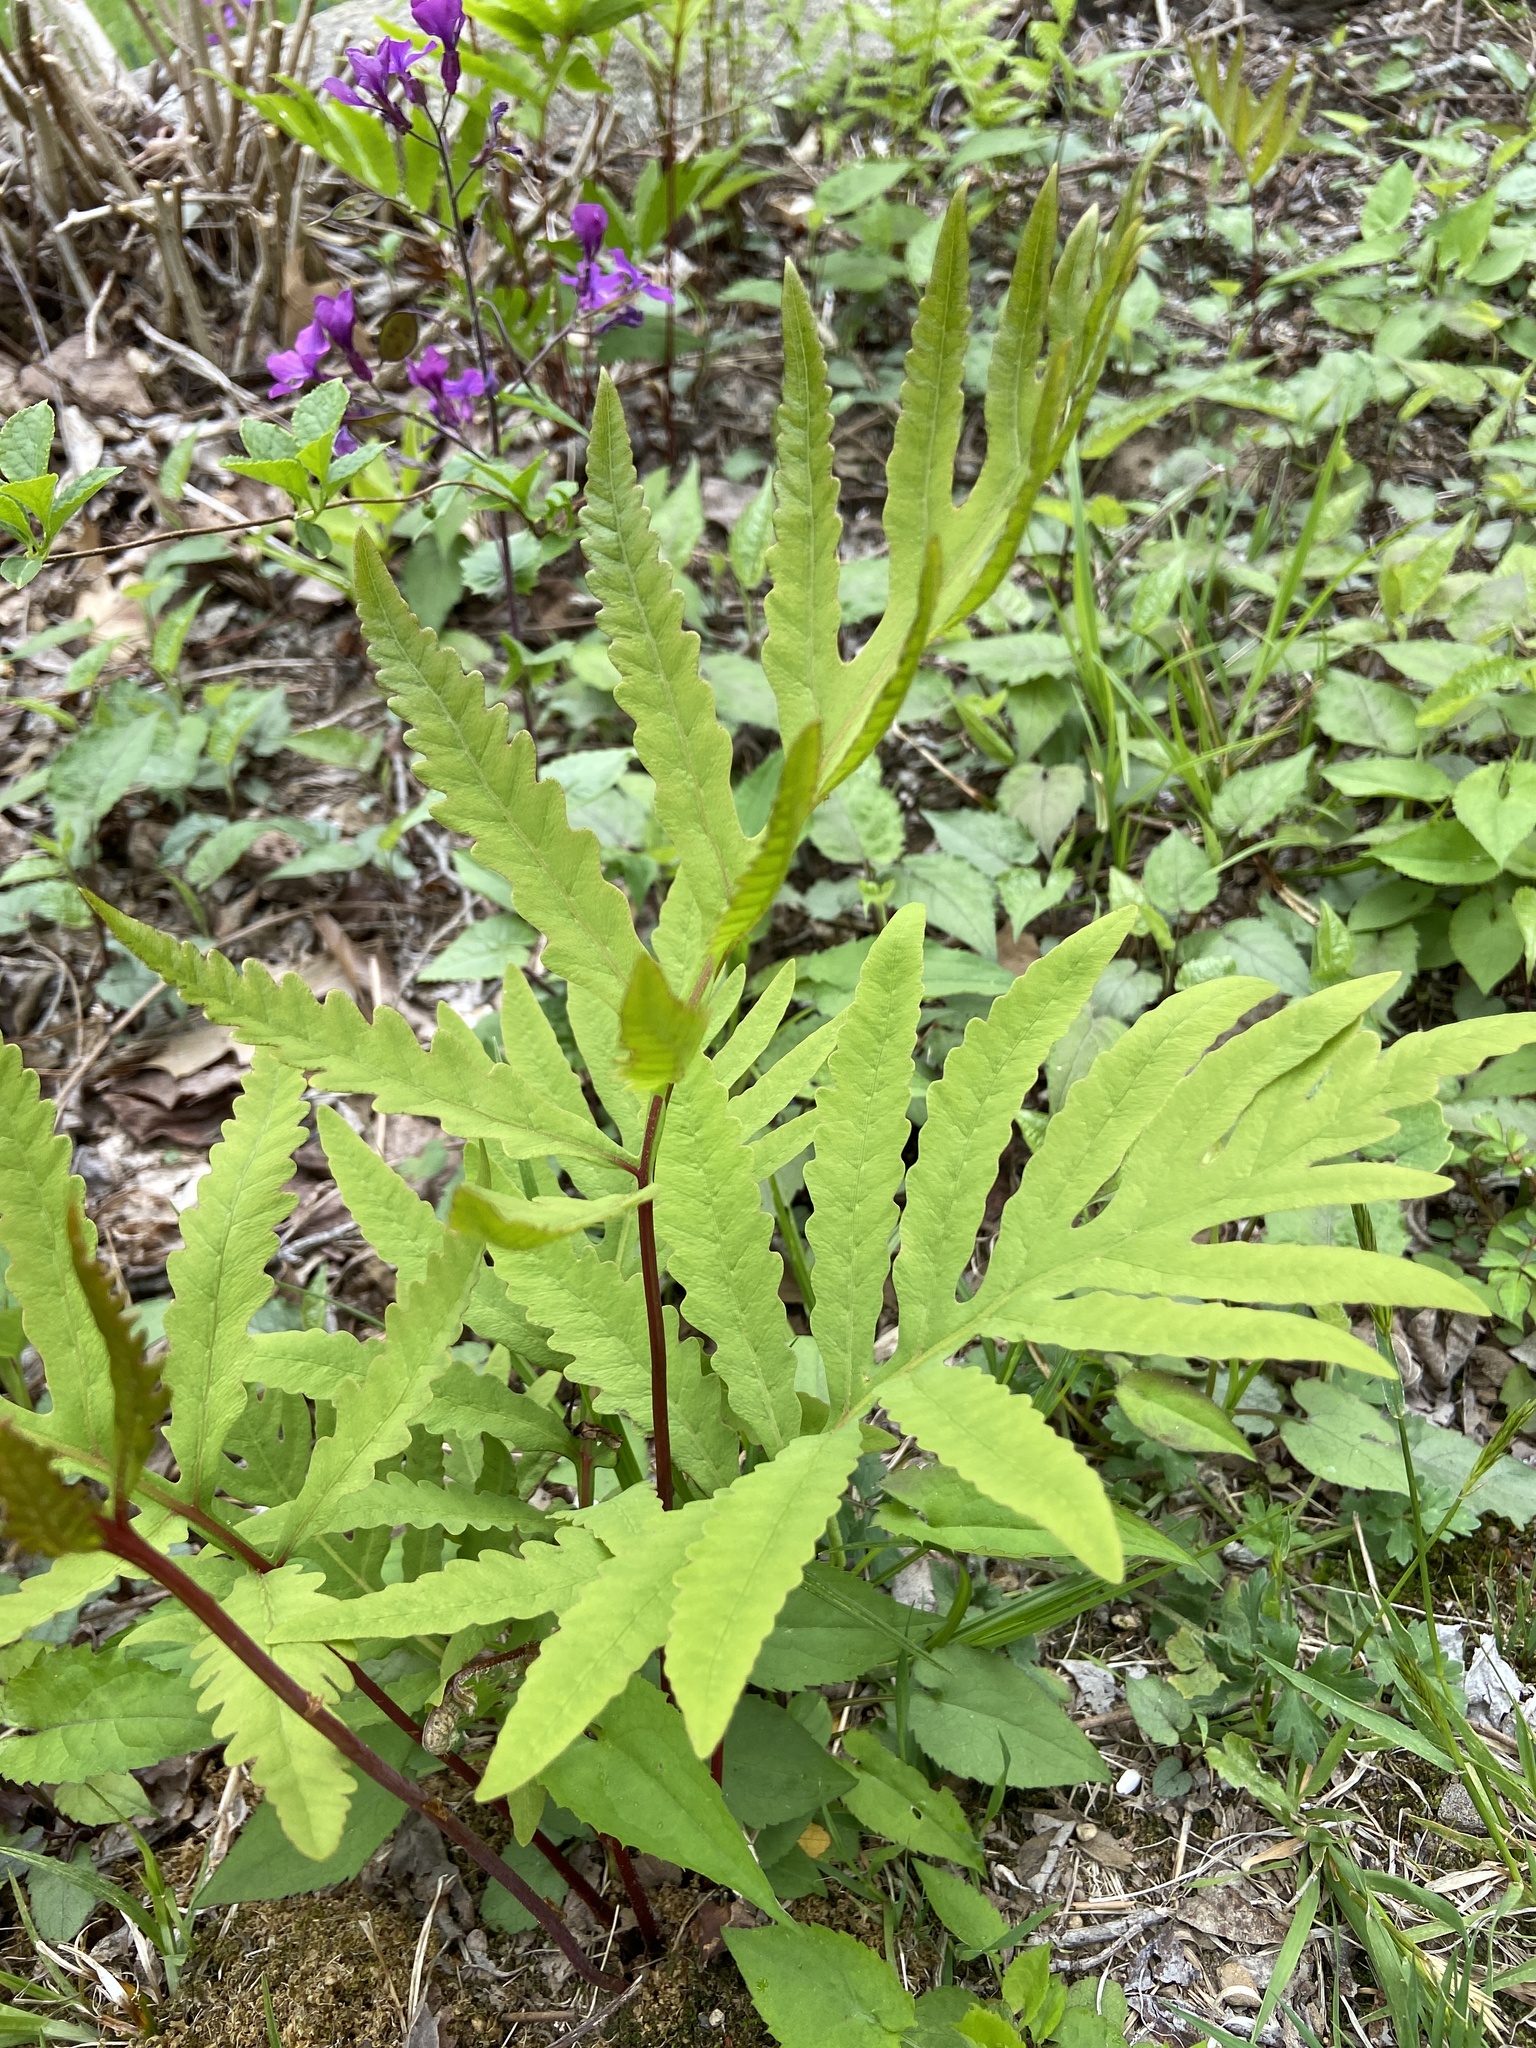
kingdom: Plantae
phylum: Tracheophyta
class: Polypodiopsida
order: Polypodiales
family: Onocleaceae
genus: Onoclea
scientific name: Onoclea sensibilis
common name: Sensitive fern
